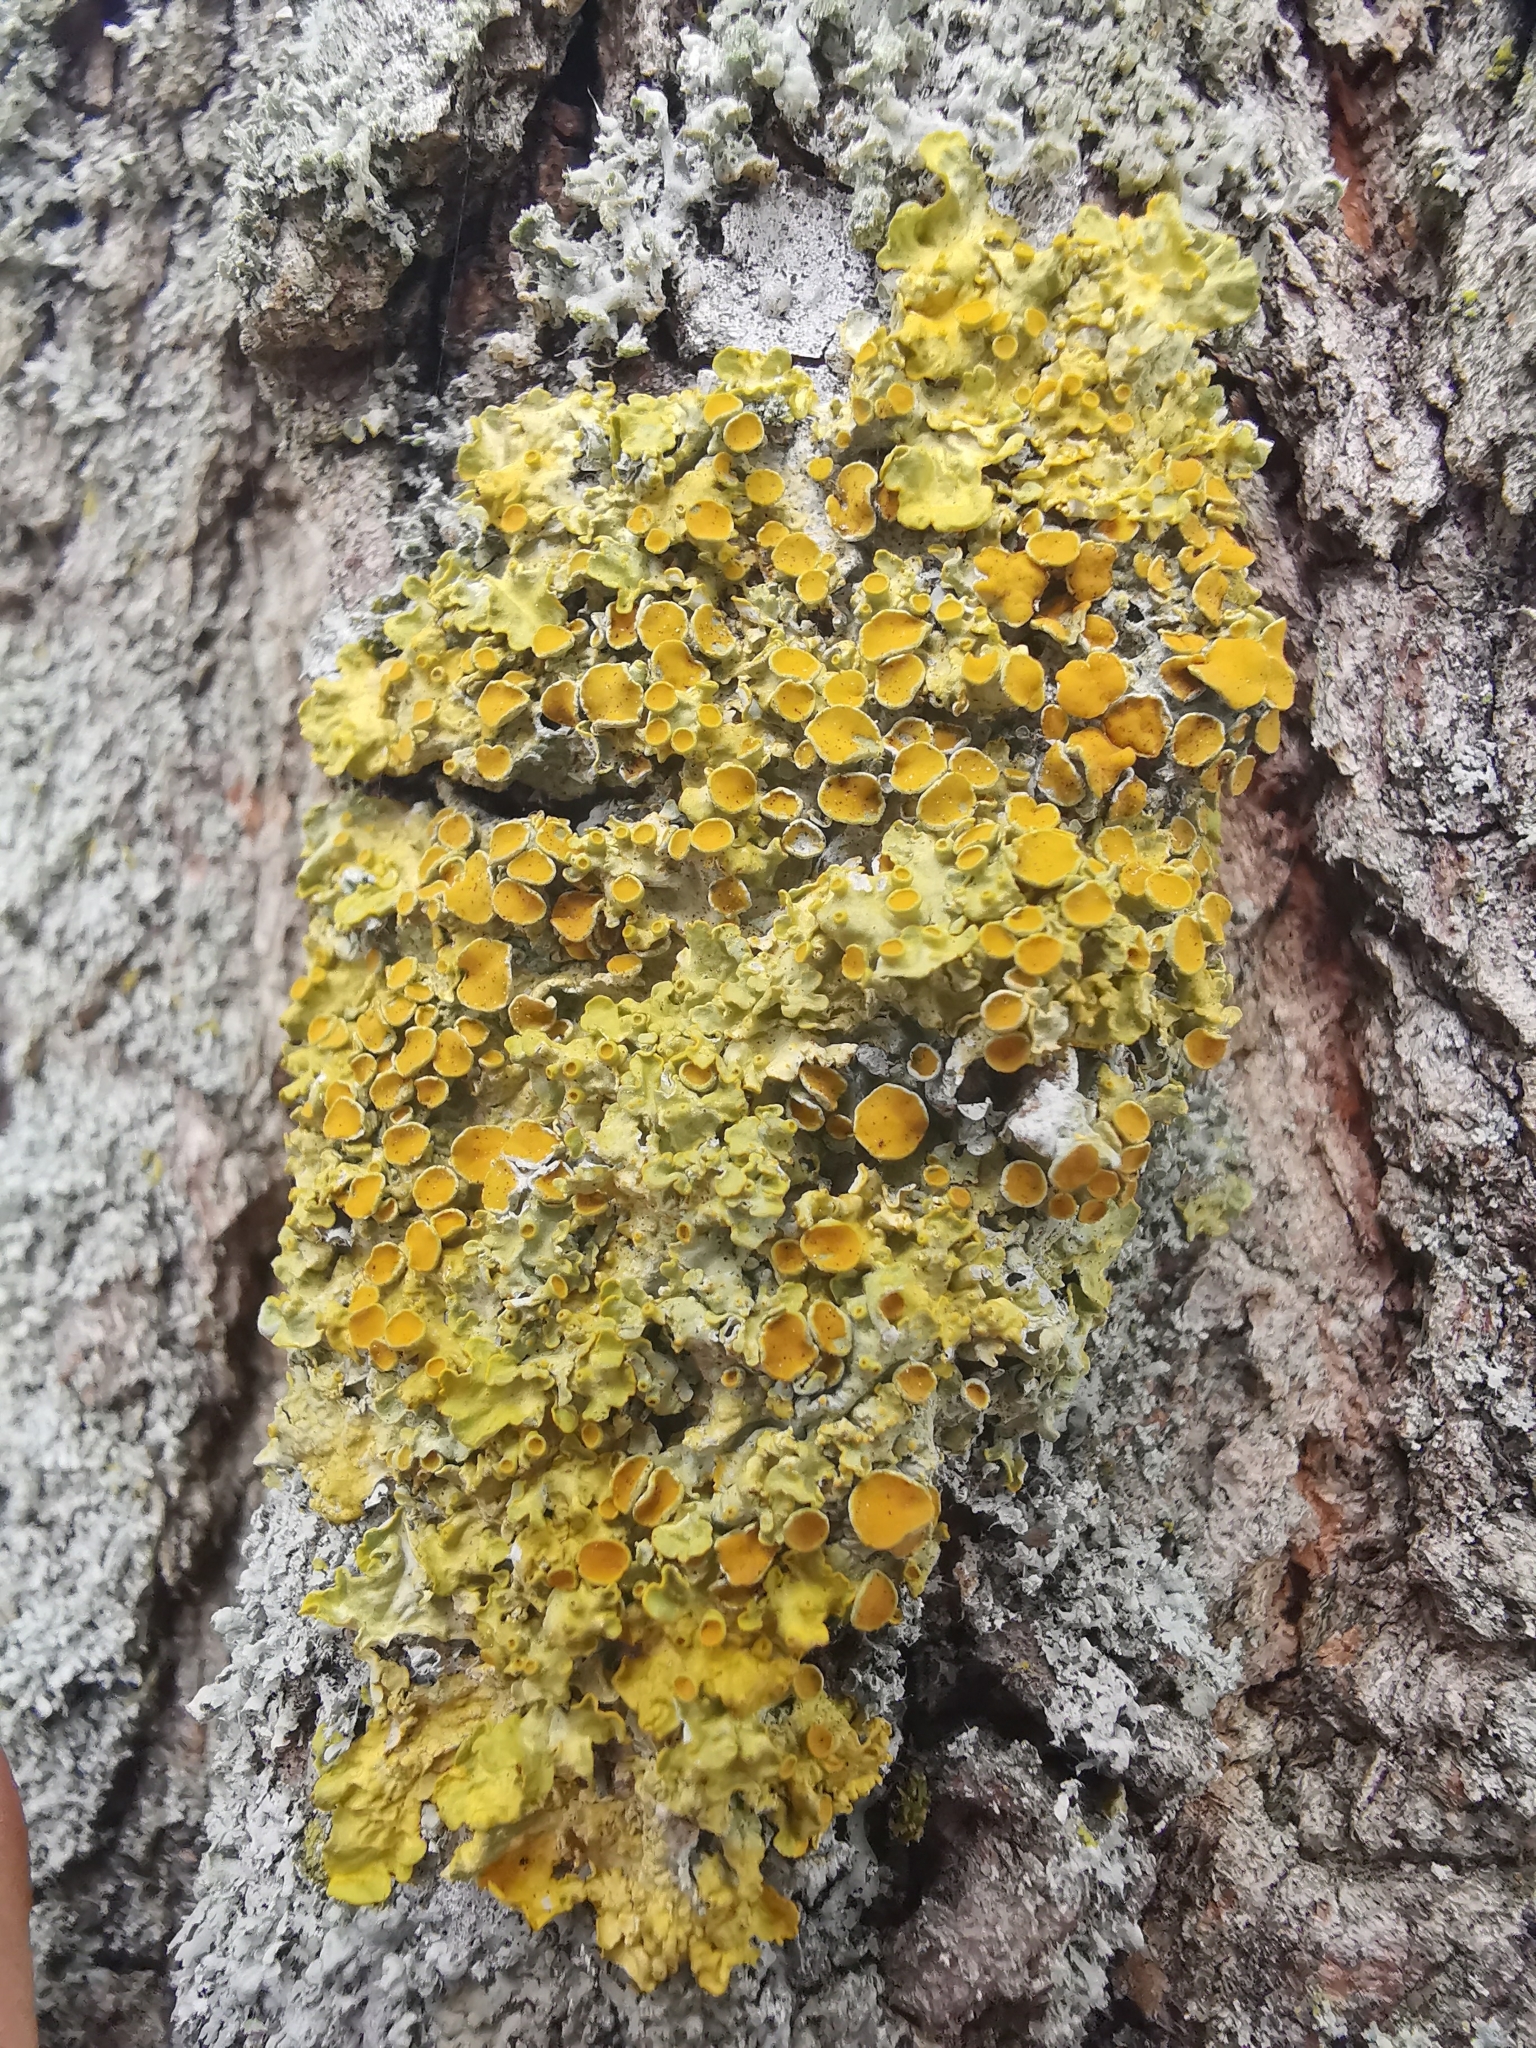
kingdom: Fungi
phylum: Ascomycota
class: Lecanoromycetes
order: Teloschistales
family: Teloschistaceae
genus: Xanthoria
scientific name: Xanthoria parietina
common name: Common orange lichen
